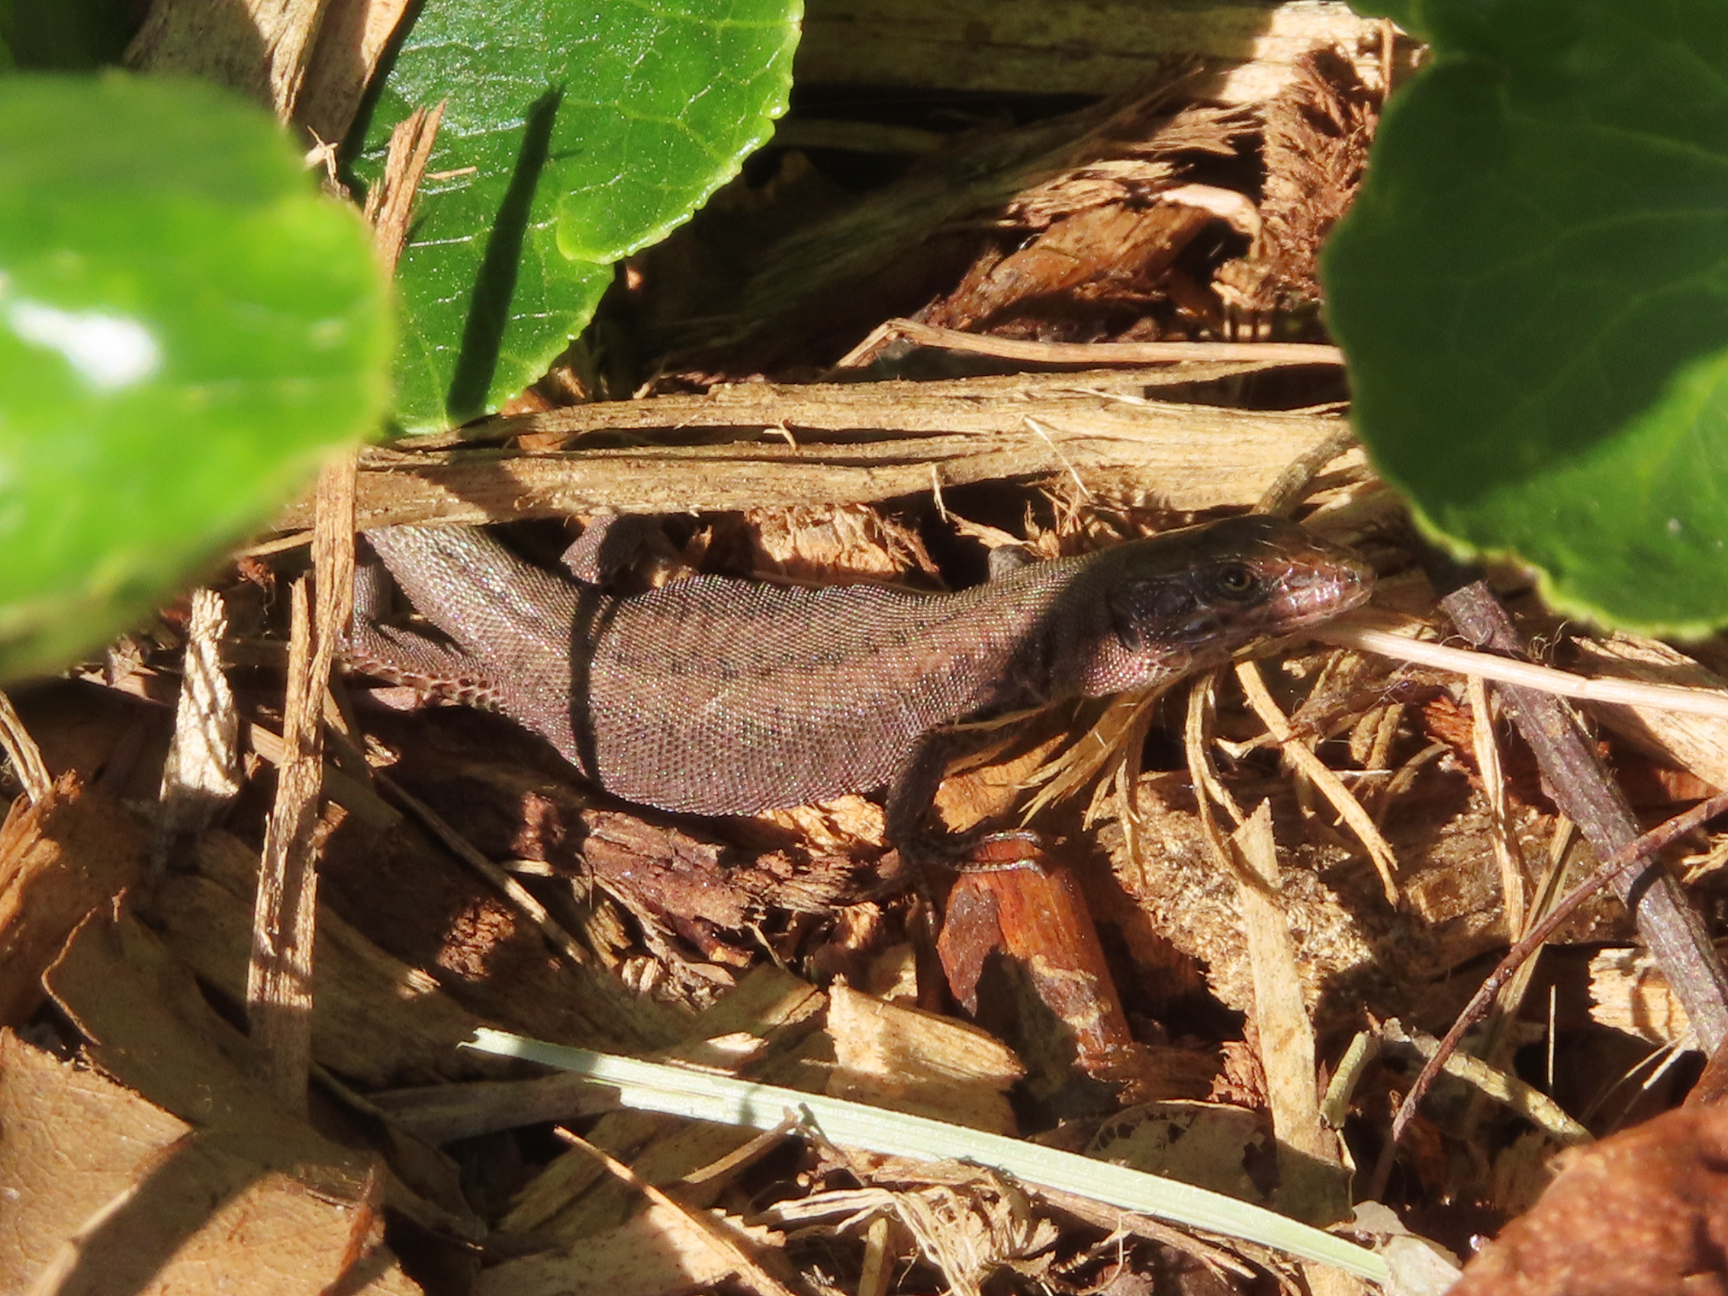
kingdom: Animalia
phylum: Chordata
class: Squamata
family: Lacertidae
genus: Podarcis
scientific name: Podarcis muralis
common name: Common wall lizard
